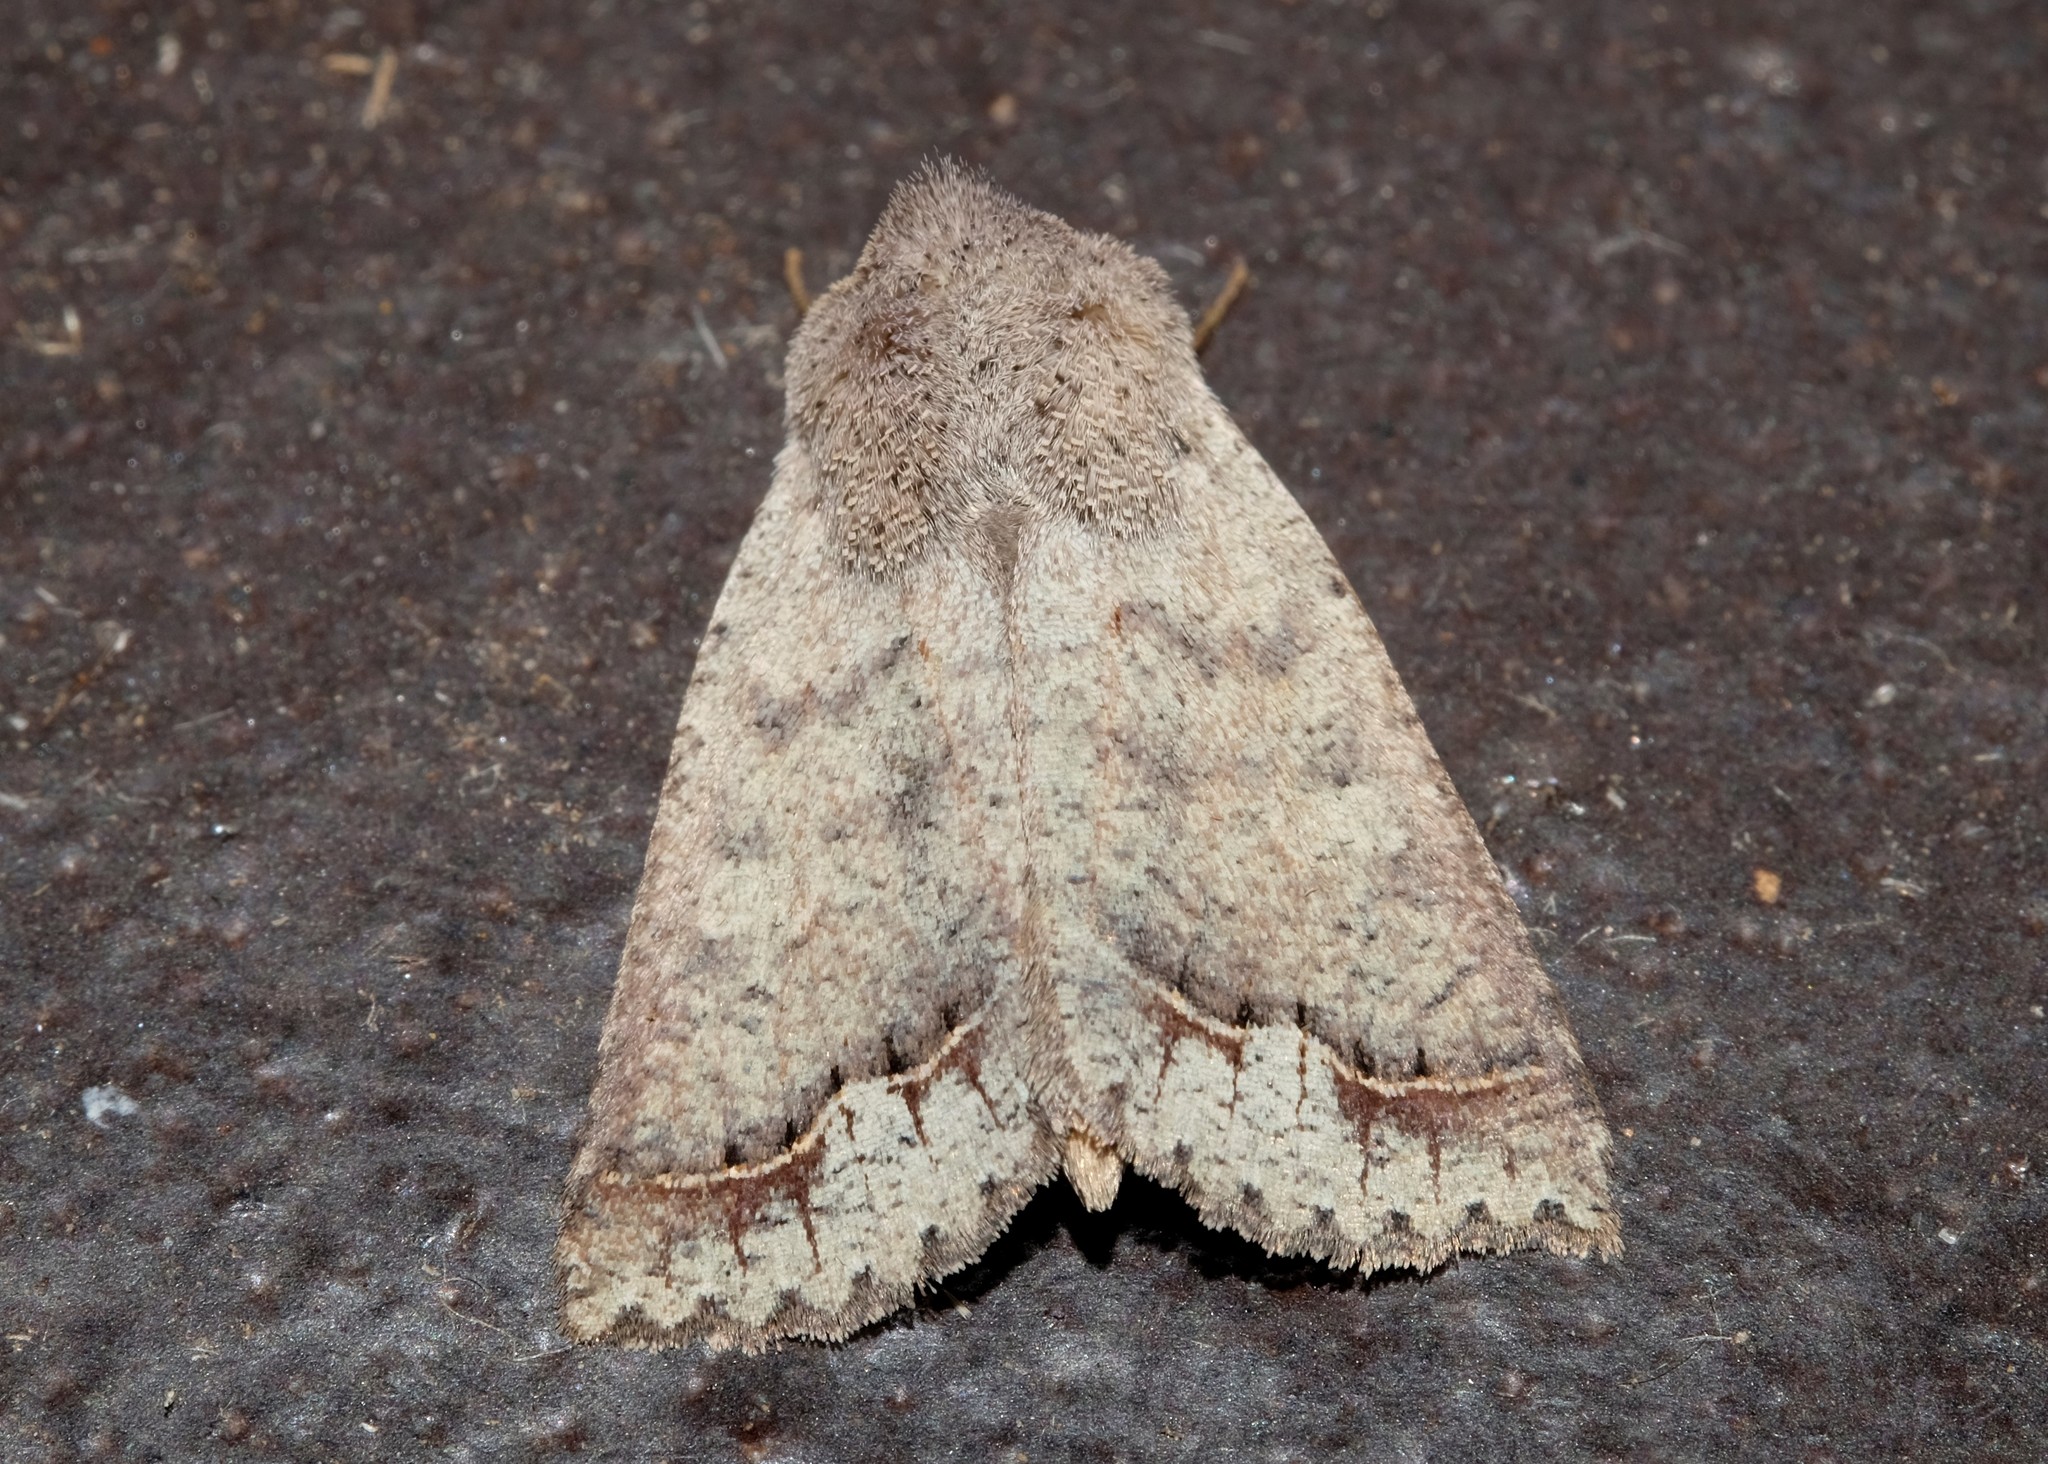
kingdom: Animalia
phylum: Arthropoda
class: Insecta
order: Lepidoptera
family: Erebidae
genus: Pantydia
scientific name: Pantydia diemeni
